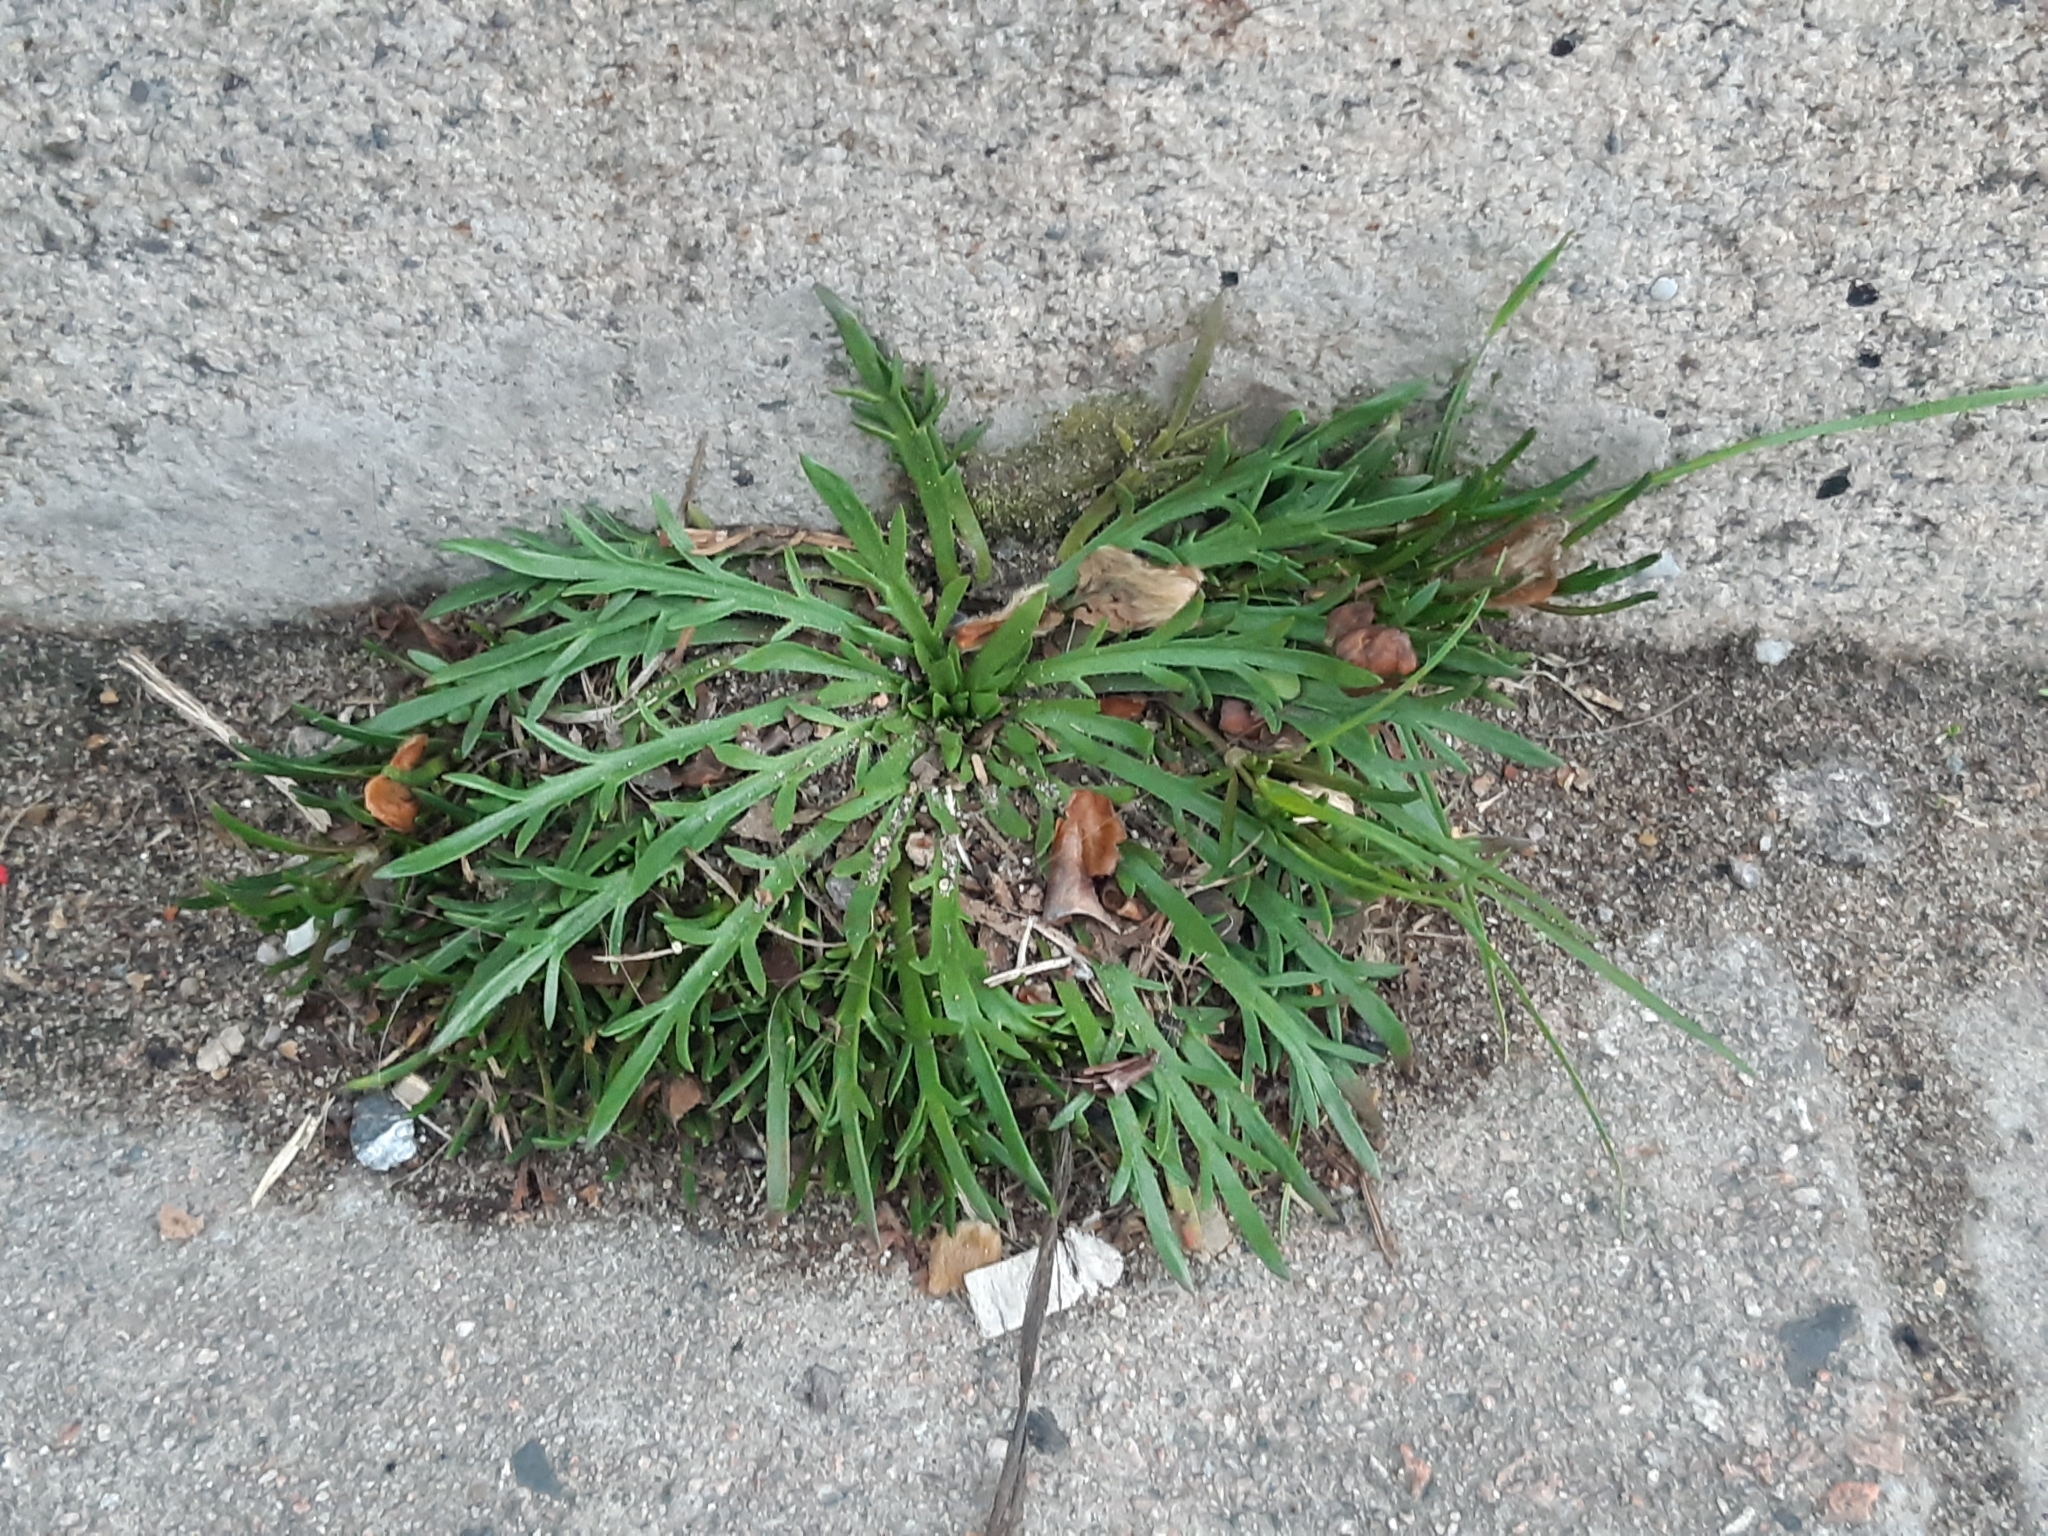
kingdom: Plantae
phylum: Tracheophyta
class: Magnoliopsida
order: Lamiales
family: Plantaginaceae
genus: Plantago
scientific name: Plantago coronopus
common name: Buck's-horn plantain
